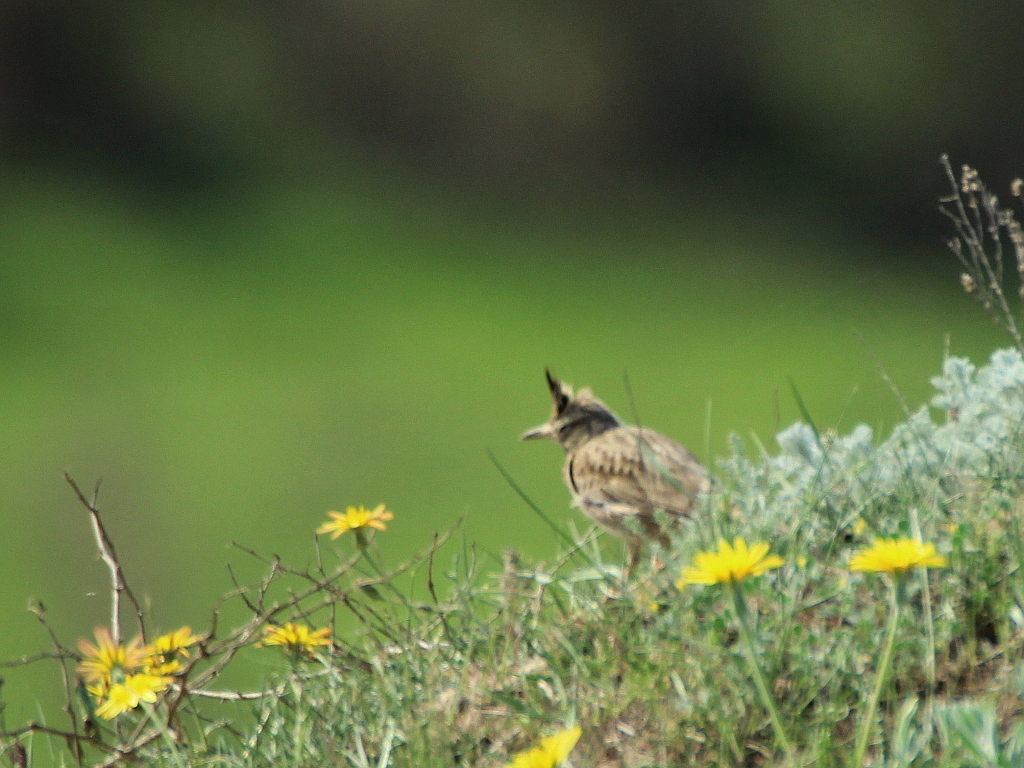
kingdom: Animalia
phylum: Chordata
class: Aves
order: Passeriformes
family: Alaudidae
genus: Galerida
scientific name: Galerida cristata
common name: Crested lark
